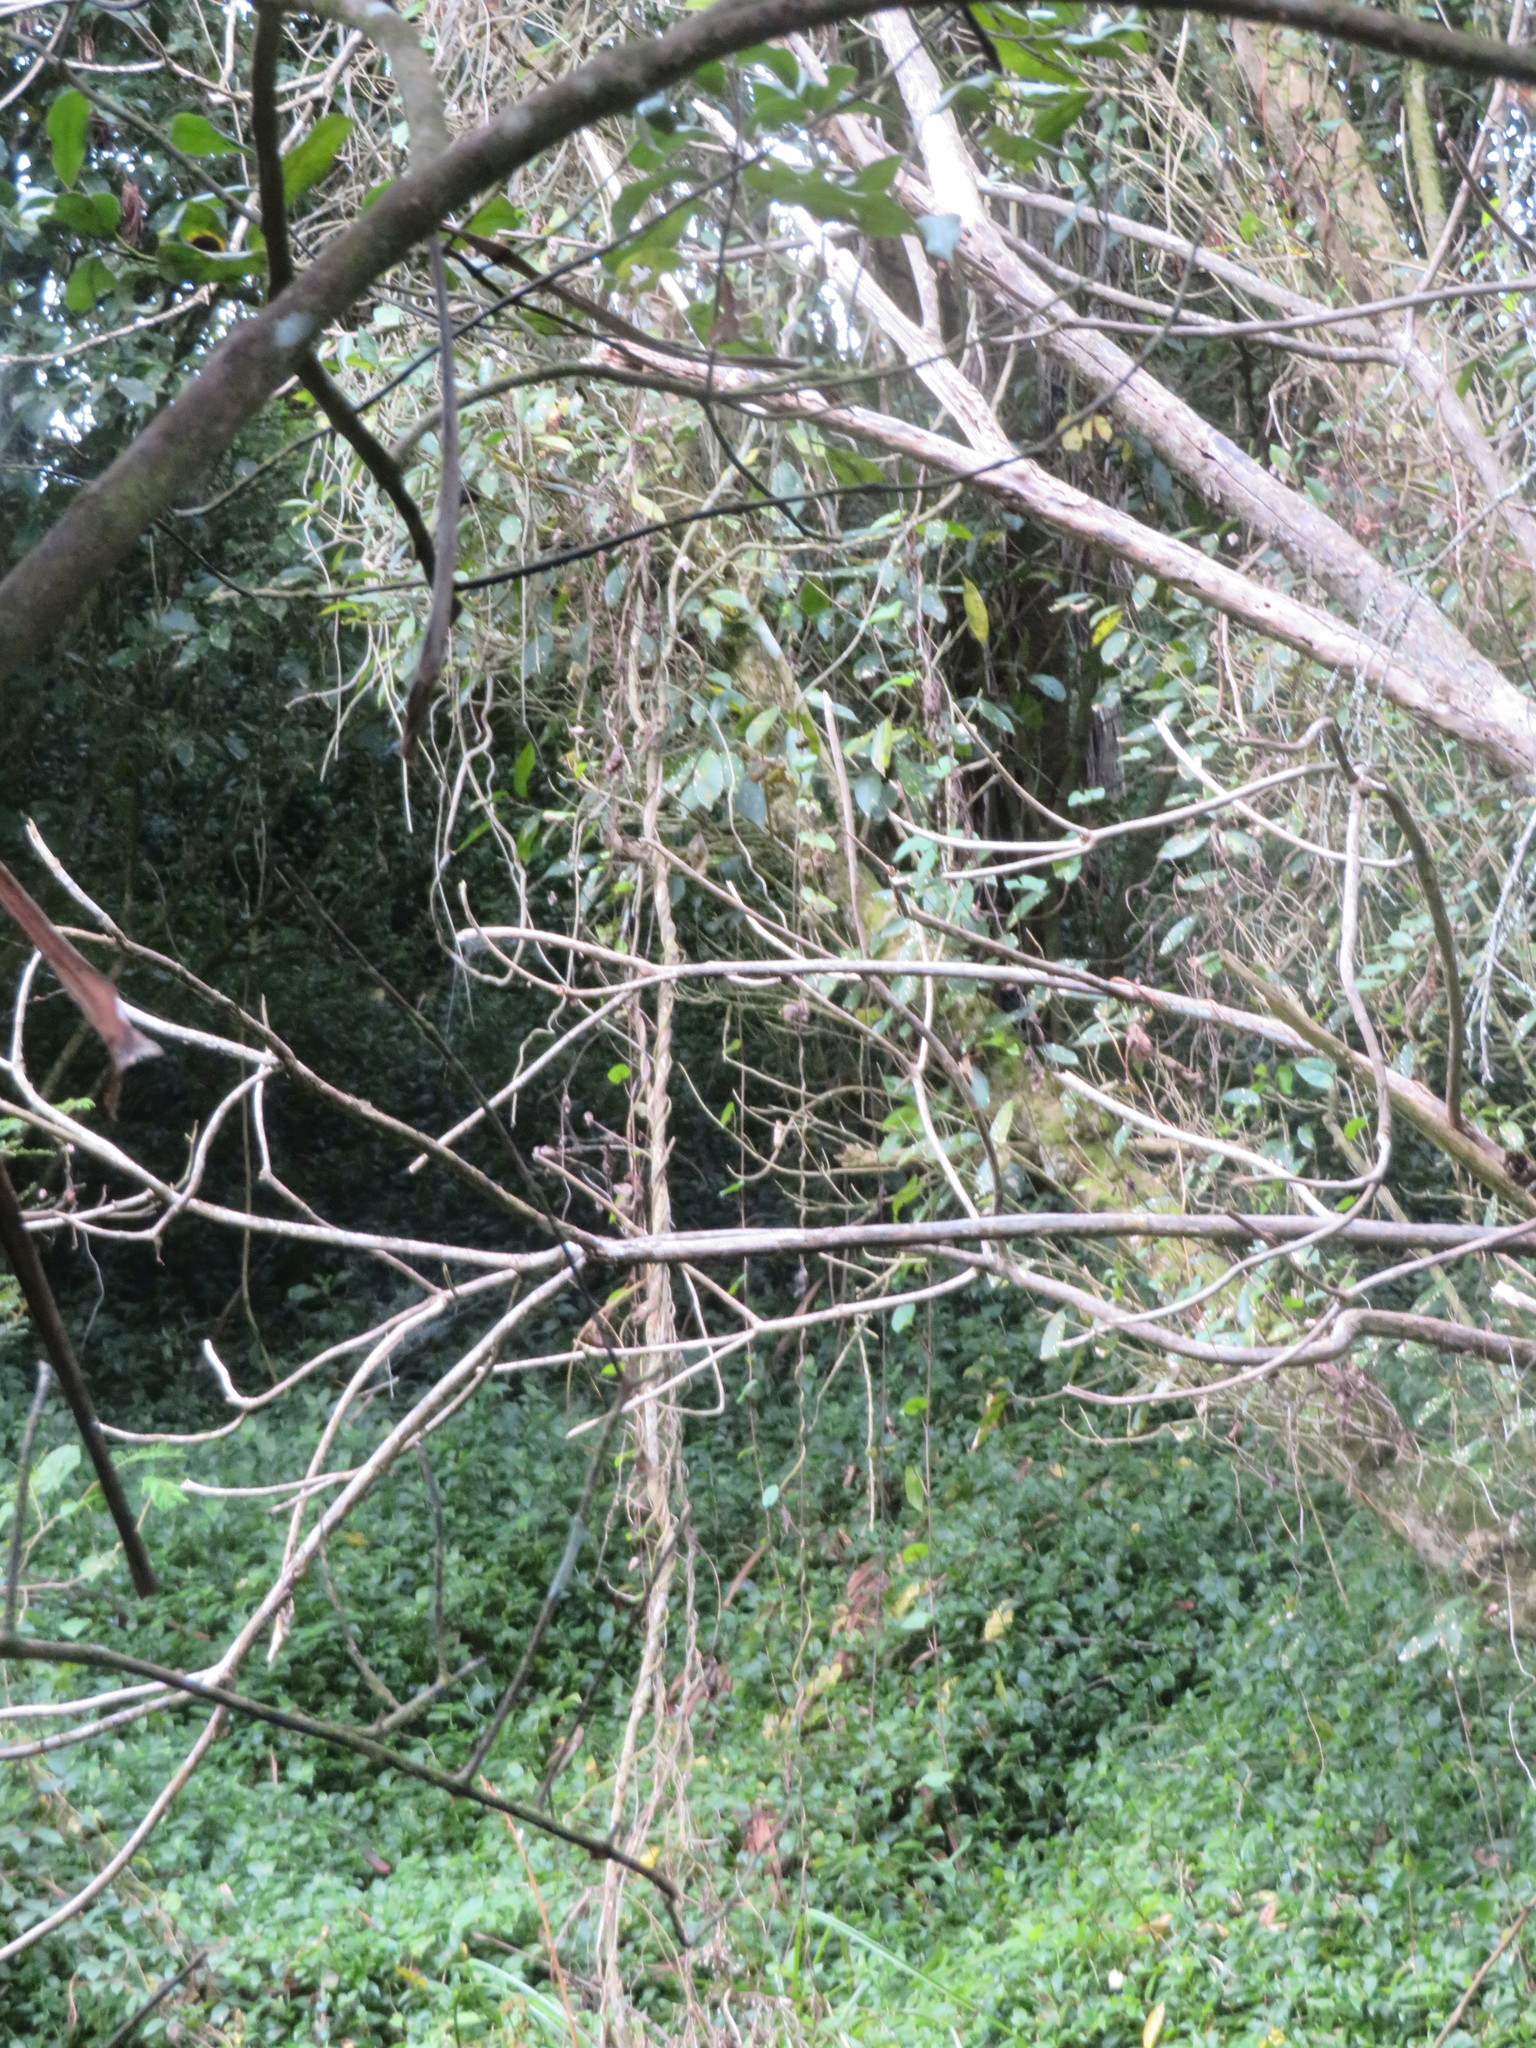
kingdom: Plantae
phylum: Tracheophyta
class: Magnoliopsida
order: Caryophyllales
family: Basellaceae
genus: Anredera
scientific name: Anredera cordifolia
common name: Heartleaf madeiravine
